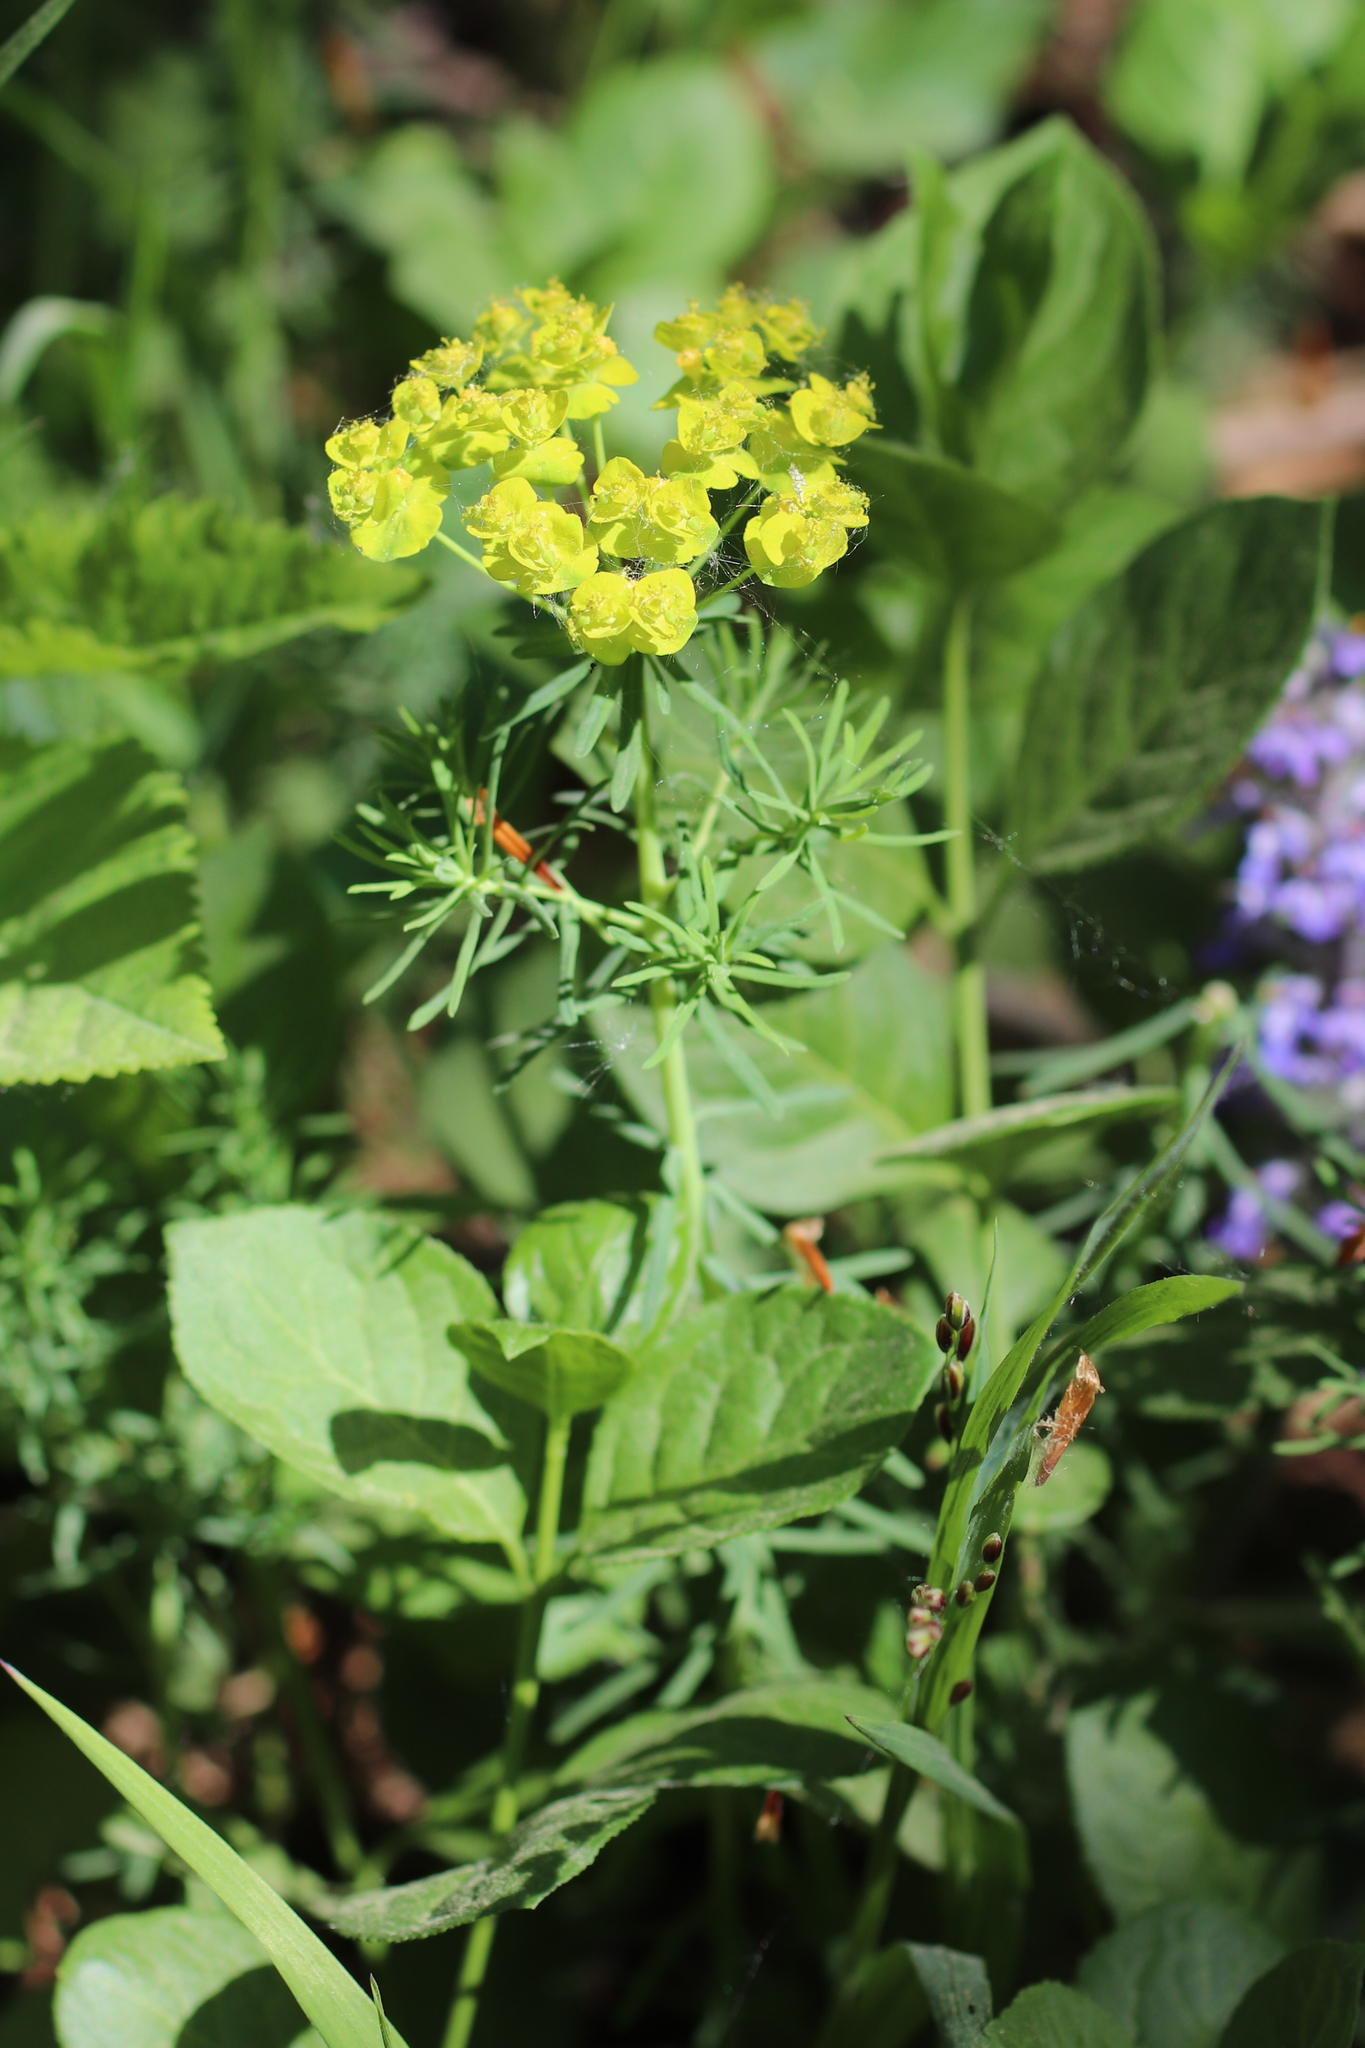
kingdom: Plantae
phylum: Tracheophyta
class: Magnoliopsida
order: Malpighiales
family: Euphorbiaceae
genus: Euphorbia
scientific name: Euphorbia cyparissias
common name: Cypress spurge
